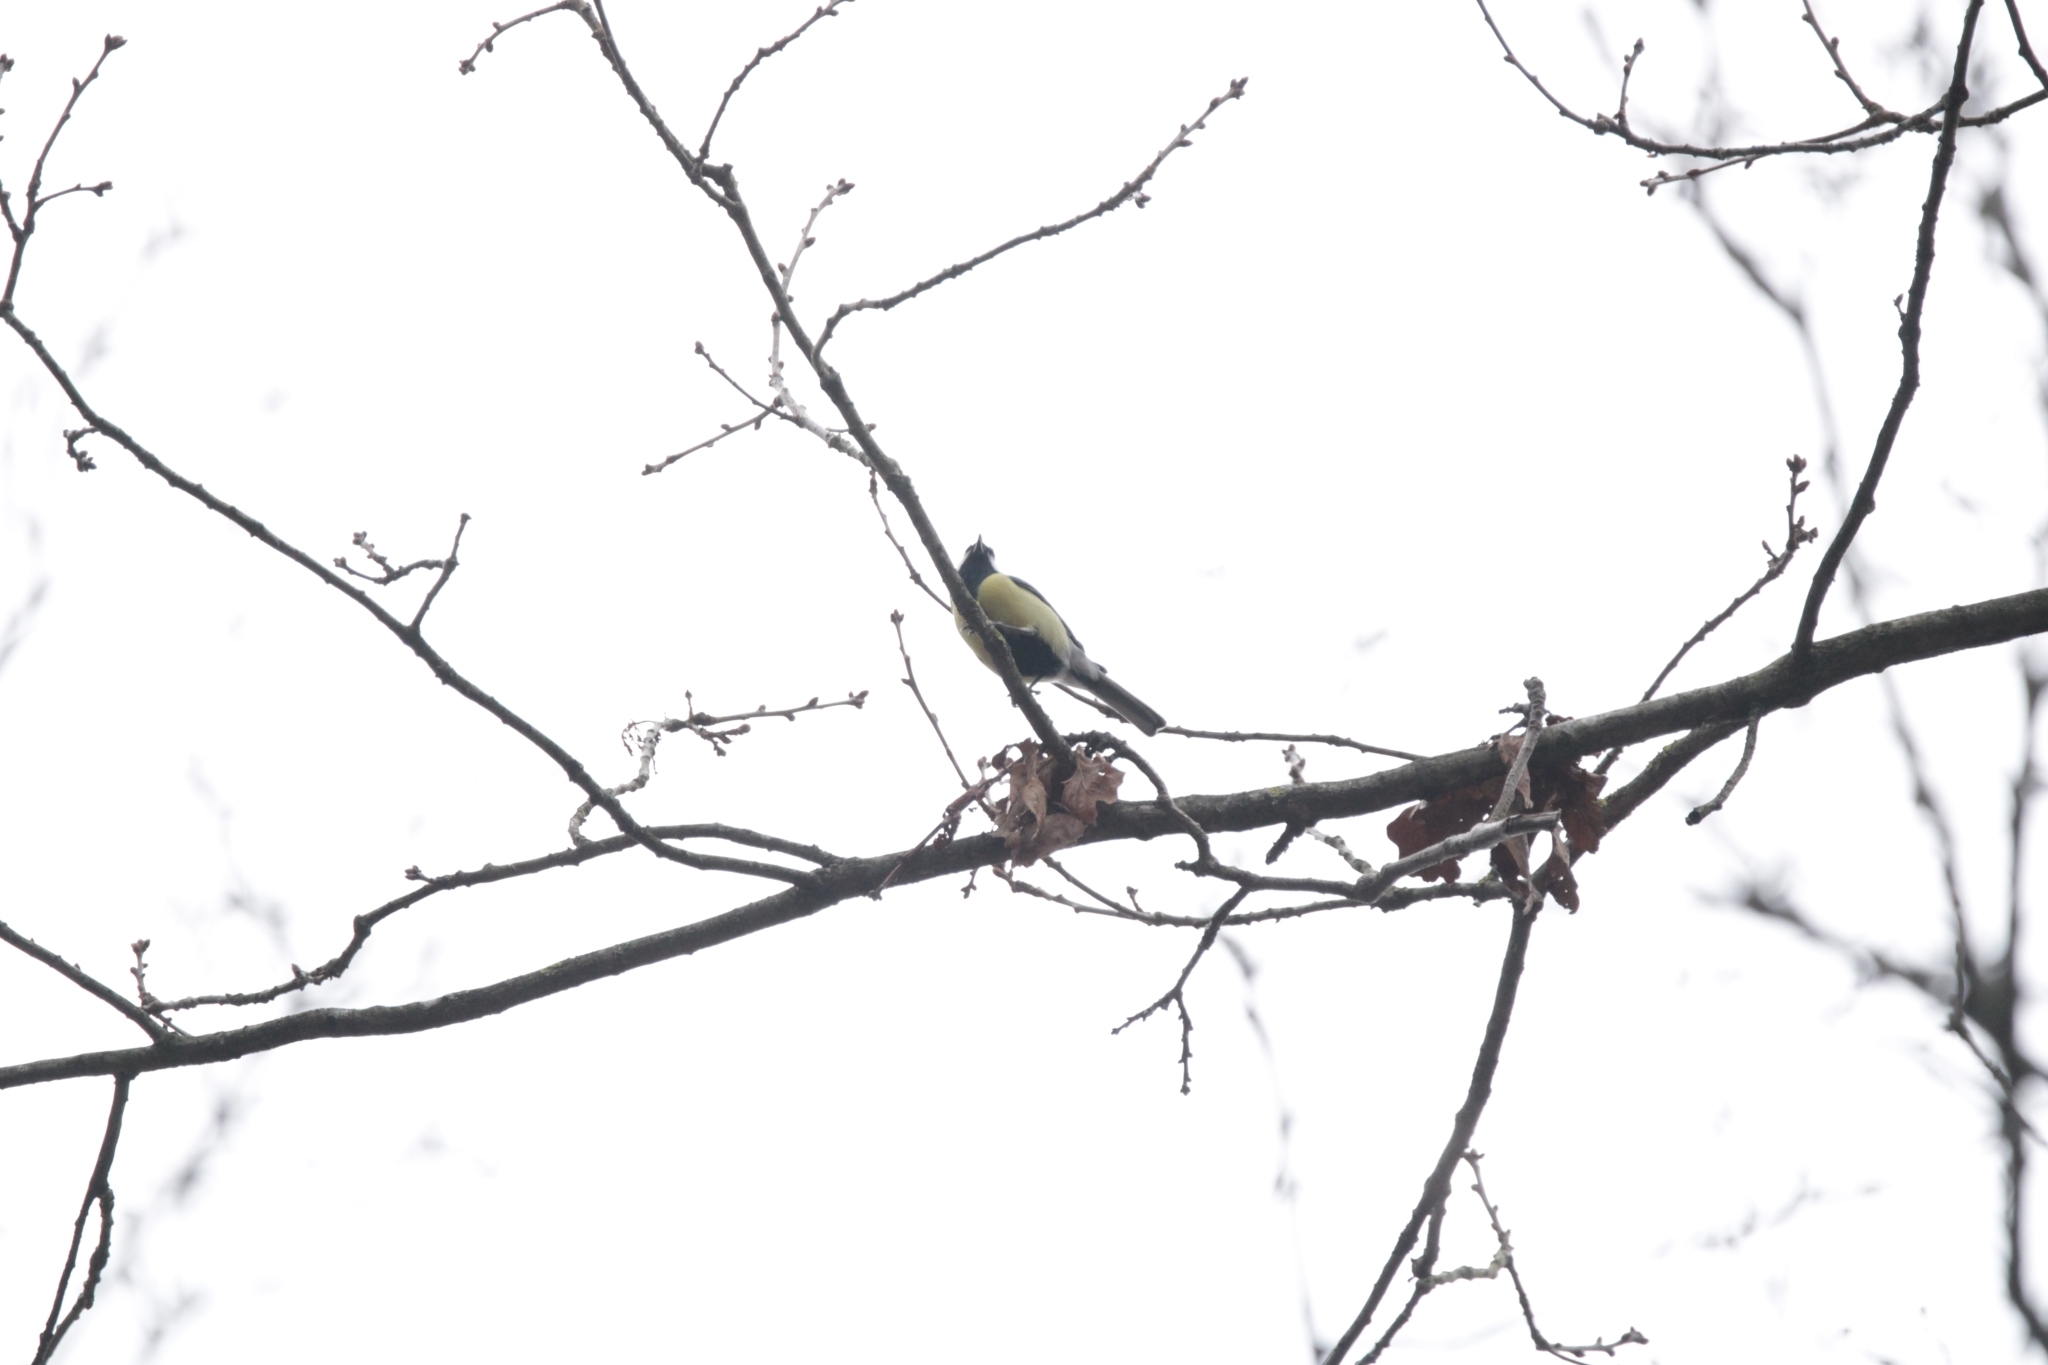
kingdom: Animalia
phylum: Chordata
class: Aves
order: Passeriformes
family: Paridae
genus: Parus
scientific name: Parus major
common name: Great tit
